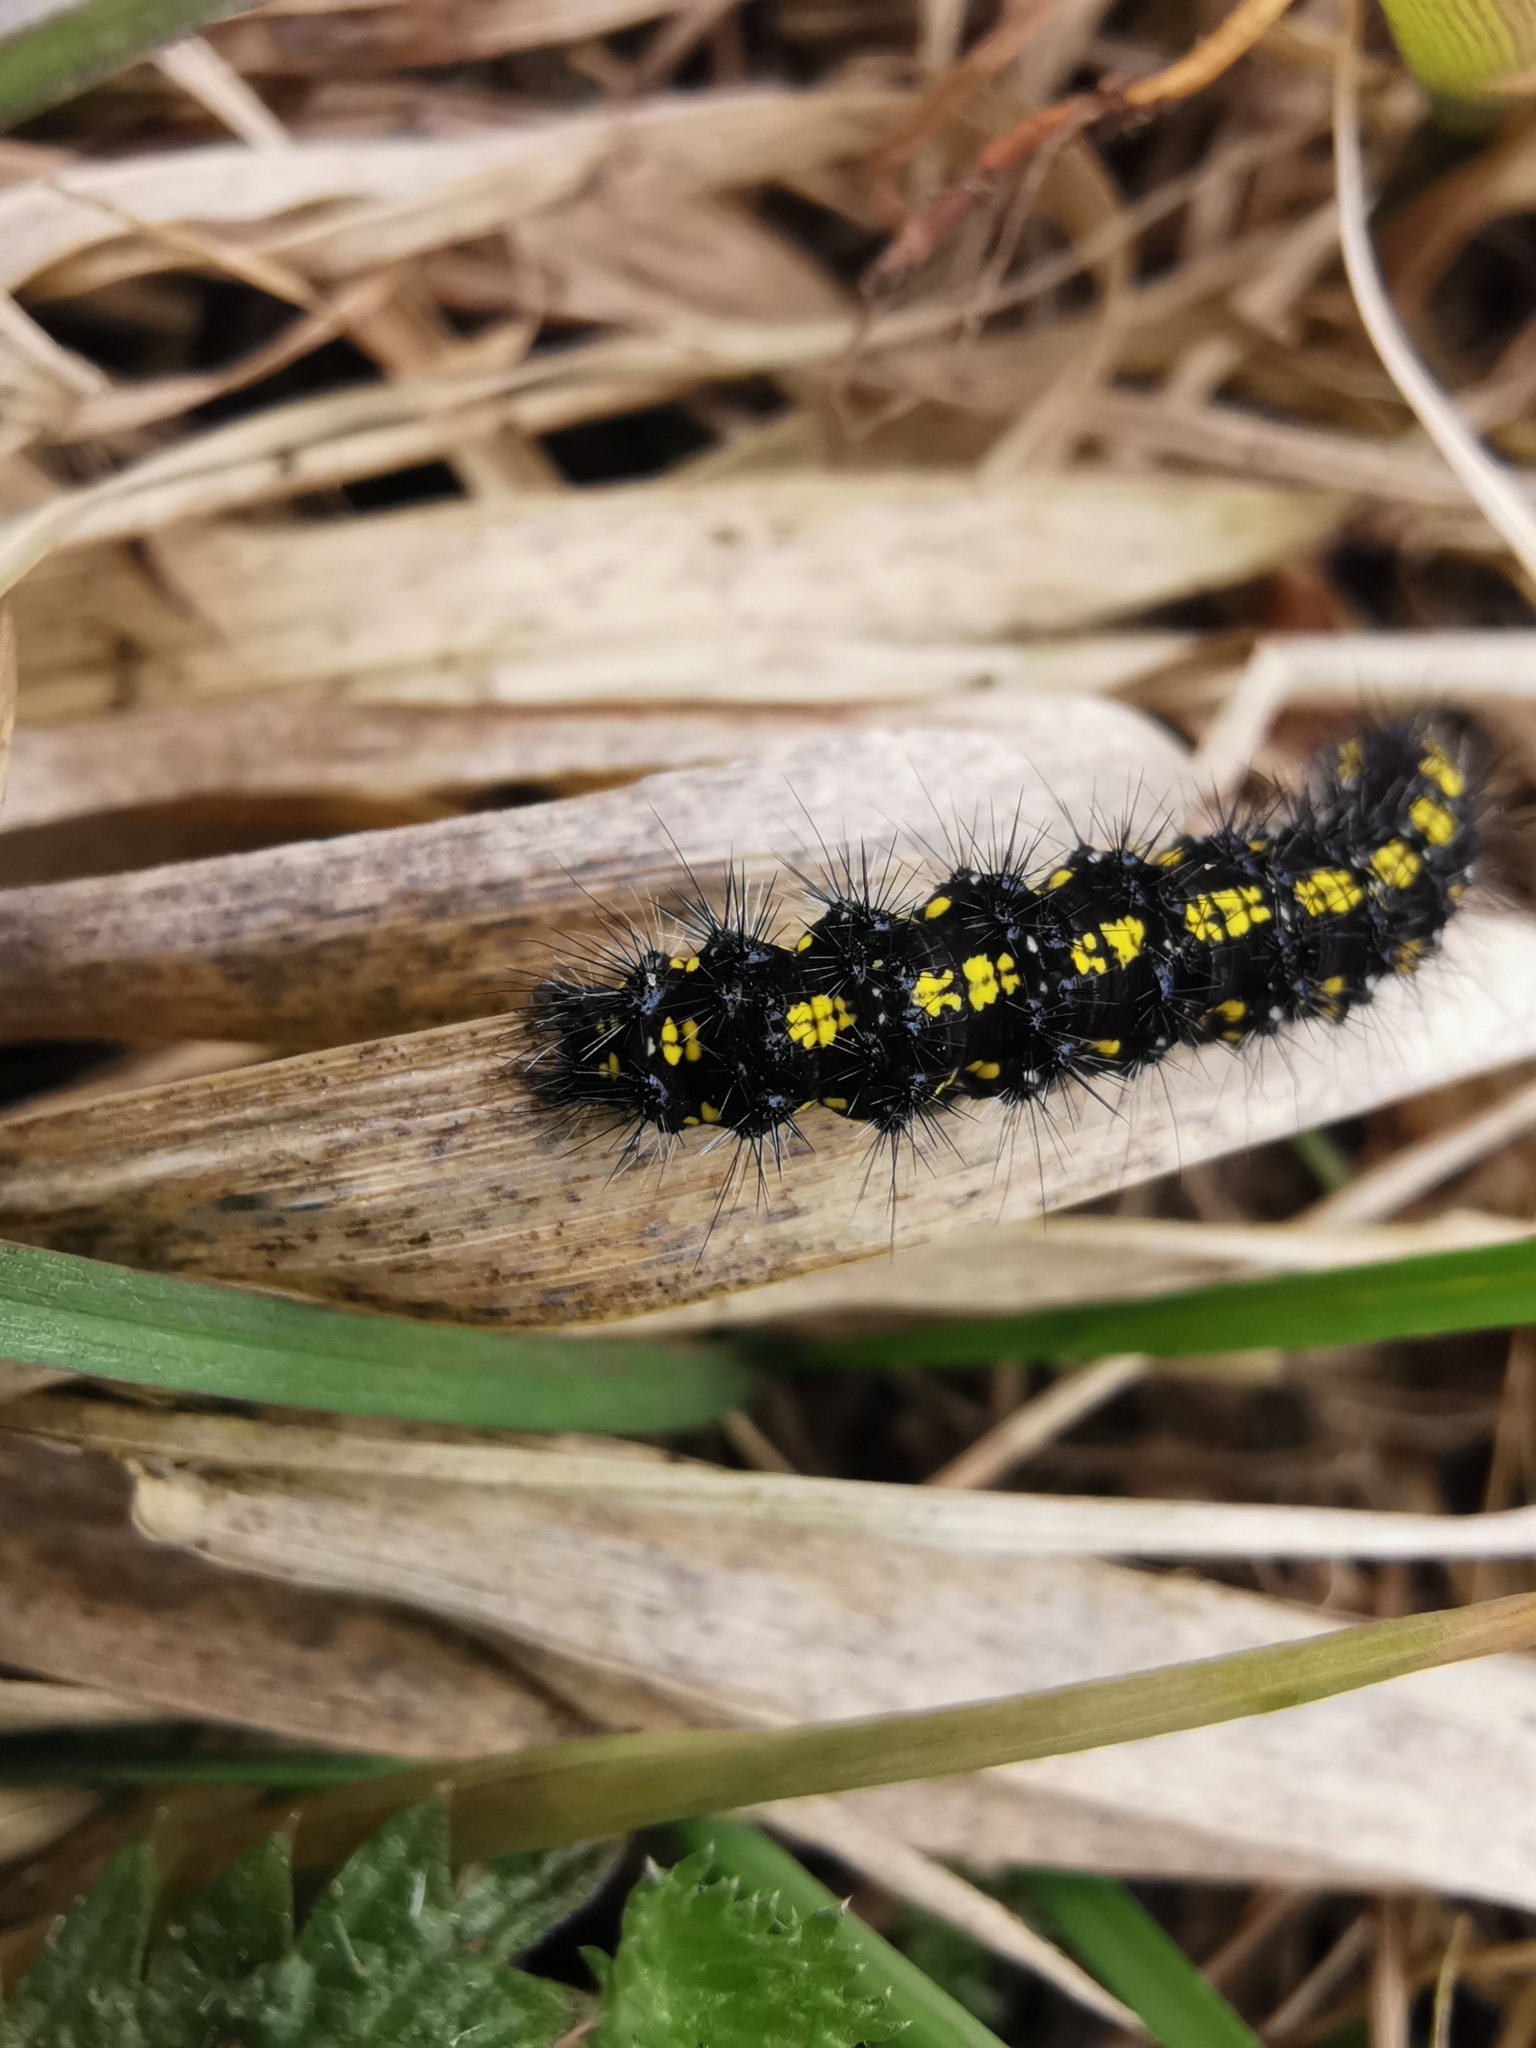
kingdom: Animalia
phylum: Arthropoda
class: Insecta
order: Lepidoptera
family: Erebidae
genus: Callimorpha
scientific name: Callimorpha dominula
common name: Scarlet tiger
